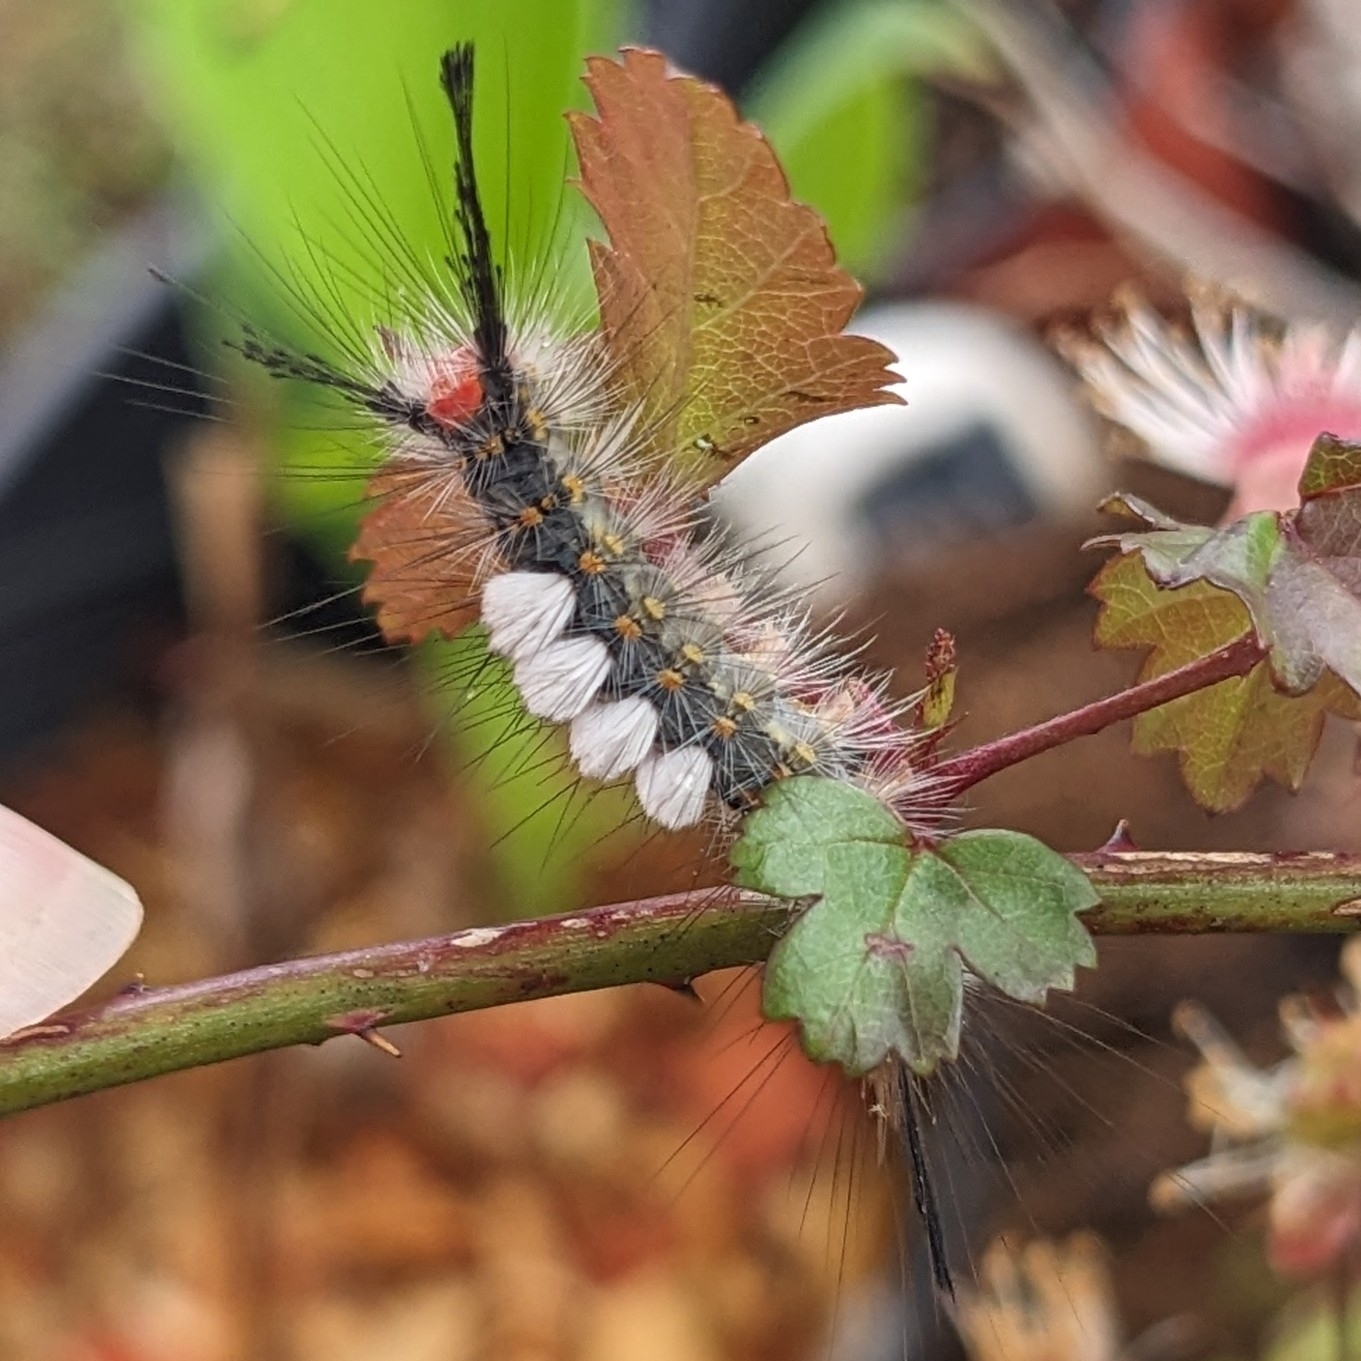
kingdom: Animalia
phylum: Arthropoda
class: Insecta
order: Lepidoptera
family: Erebidae
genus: Orgyia
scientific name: Orgyia detrita
